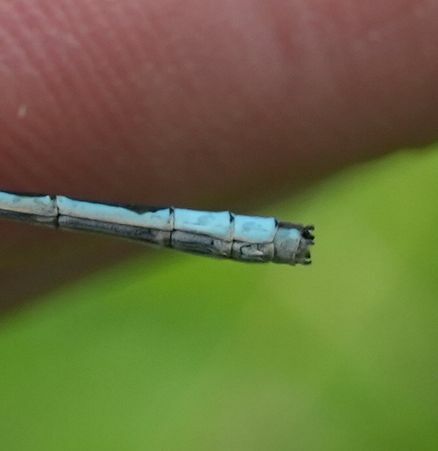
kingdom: Animalia
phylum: Arthropoda
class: Insecta
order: Odonata
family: Coenagrionidae
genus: Enallagma
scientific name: Enallagma ebrium
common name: Marsh bluet
